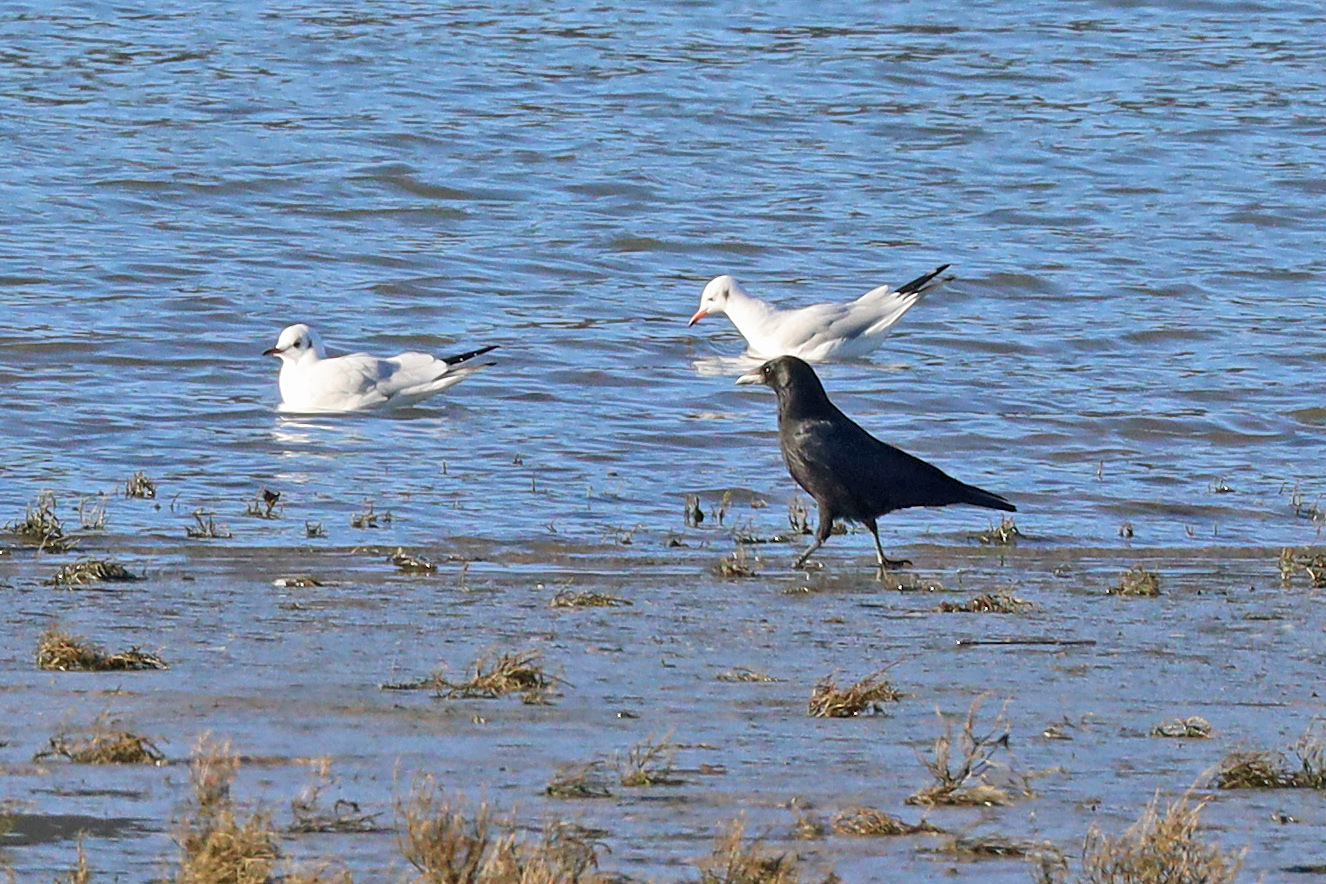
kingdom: Animalia
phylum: Chordata
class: Aves
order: Passeriformes
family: Corvidae
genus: Corvus
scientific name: Corvus corone
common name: Carrion crow
